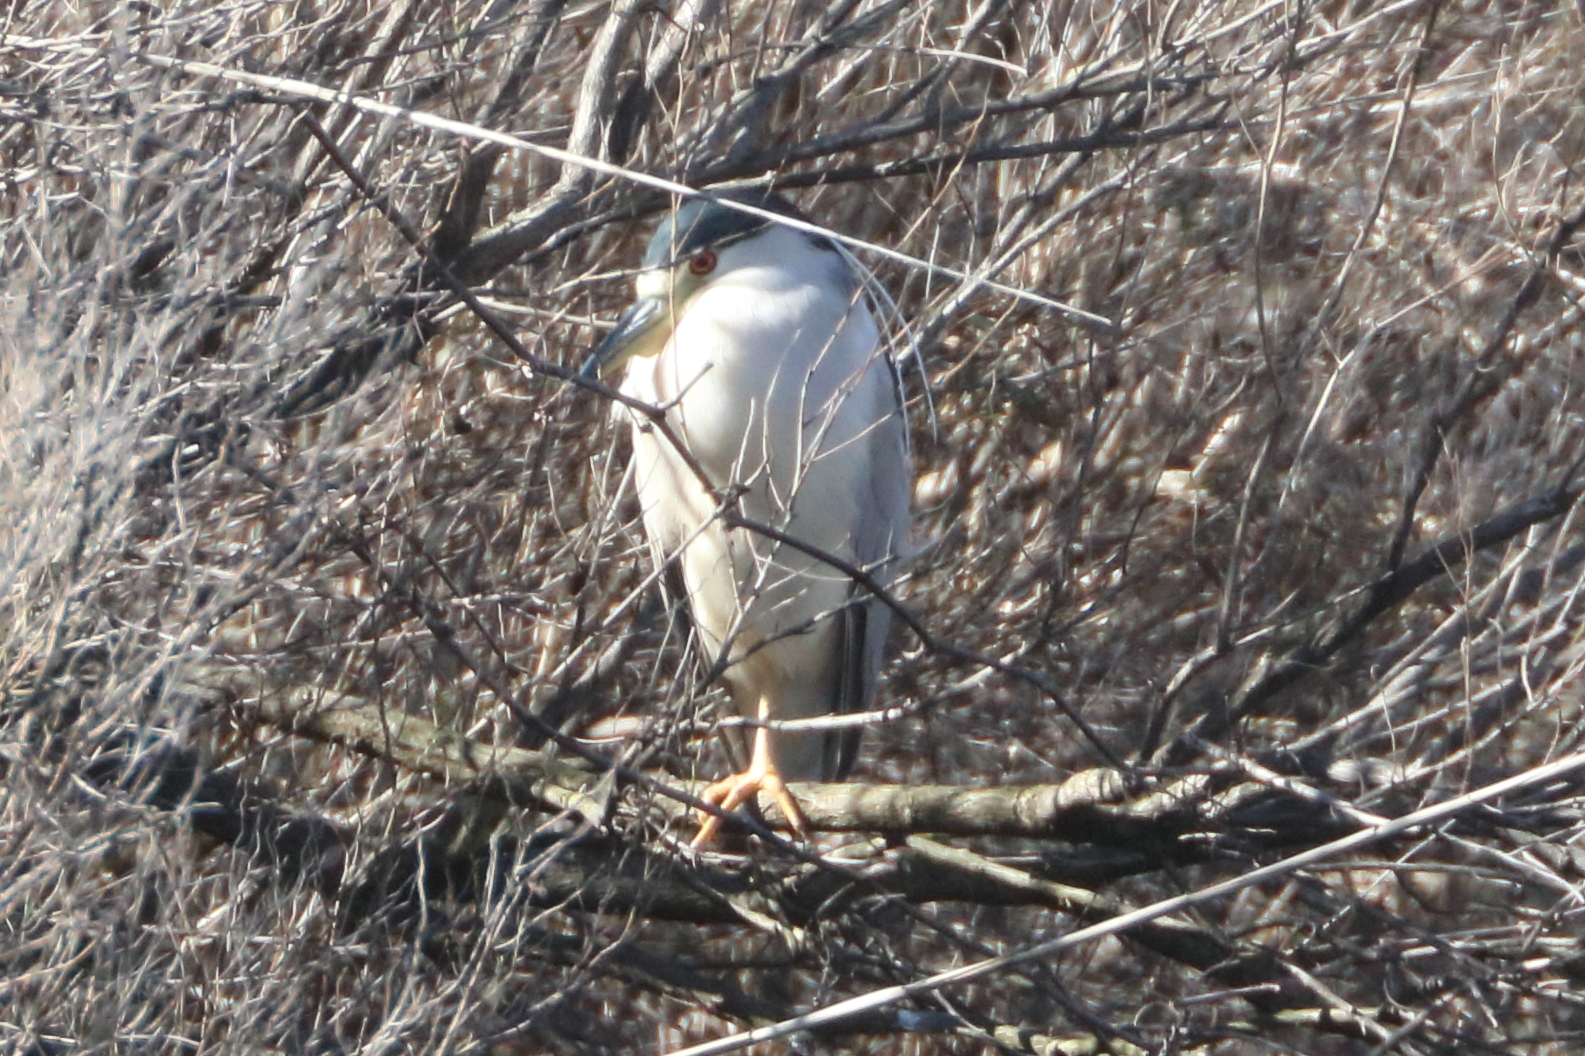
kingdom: Animalia
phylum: Chordata
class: Aves
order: Pelecaniformes
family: Ardeidae
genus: Nycticorax
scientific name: Nycticorax nycticorax
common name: Black-crowned night heron
